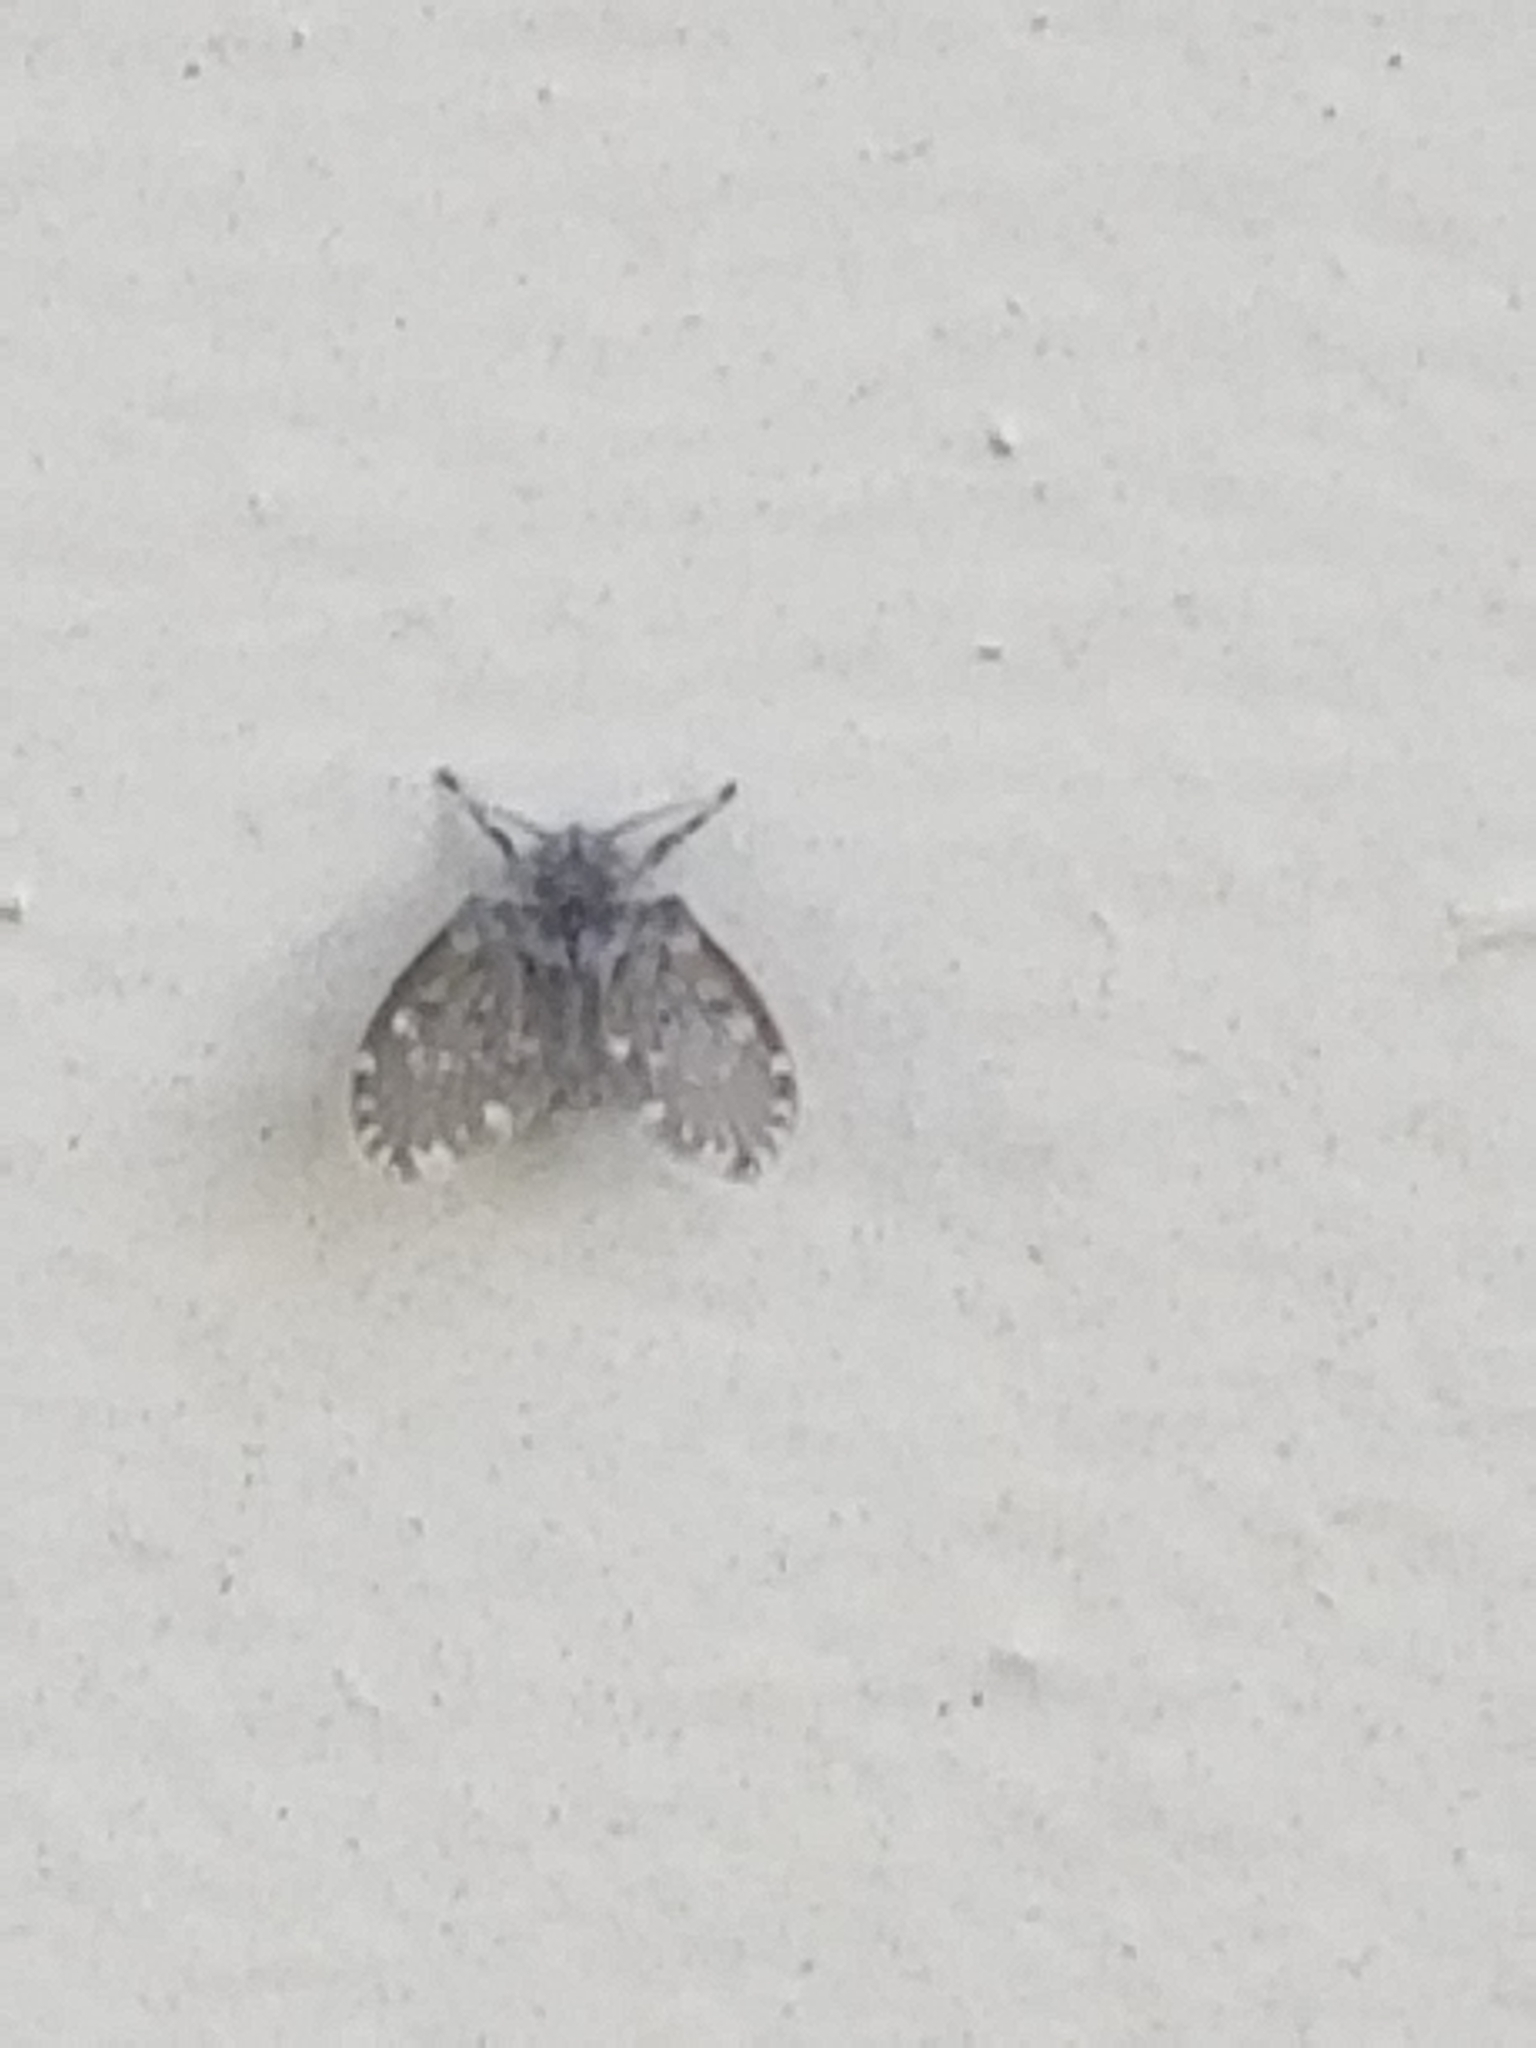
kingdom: Animalia
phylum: Arthropoda
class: Insecta
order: Diptera
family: Psychodidae
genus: Clogmia
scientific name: Clogmia albipunctatus
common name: White-spotted moth fly
